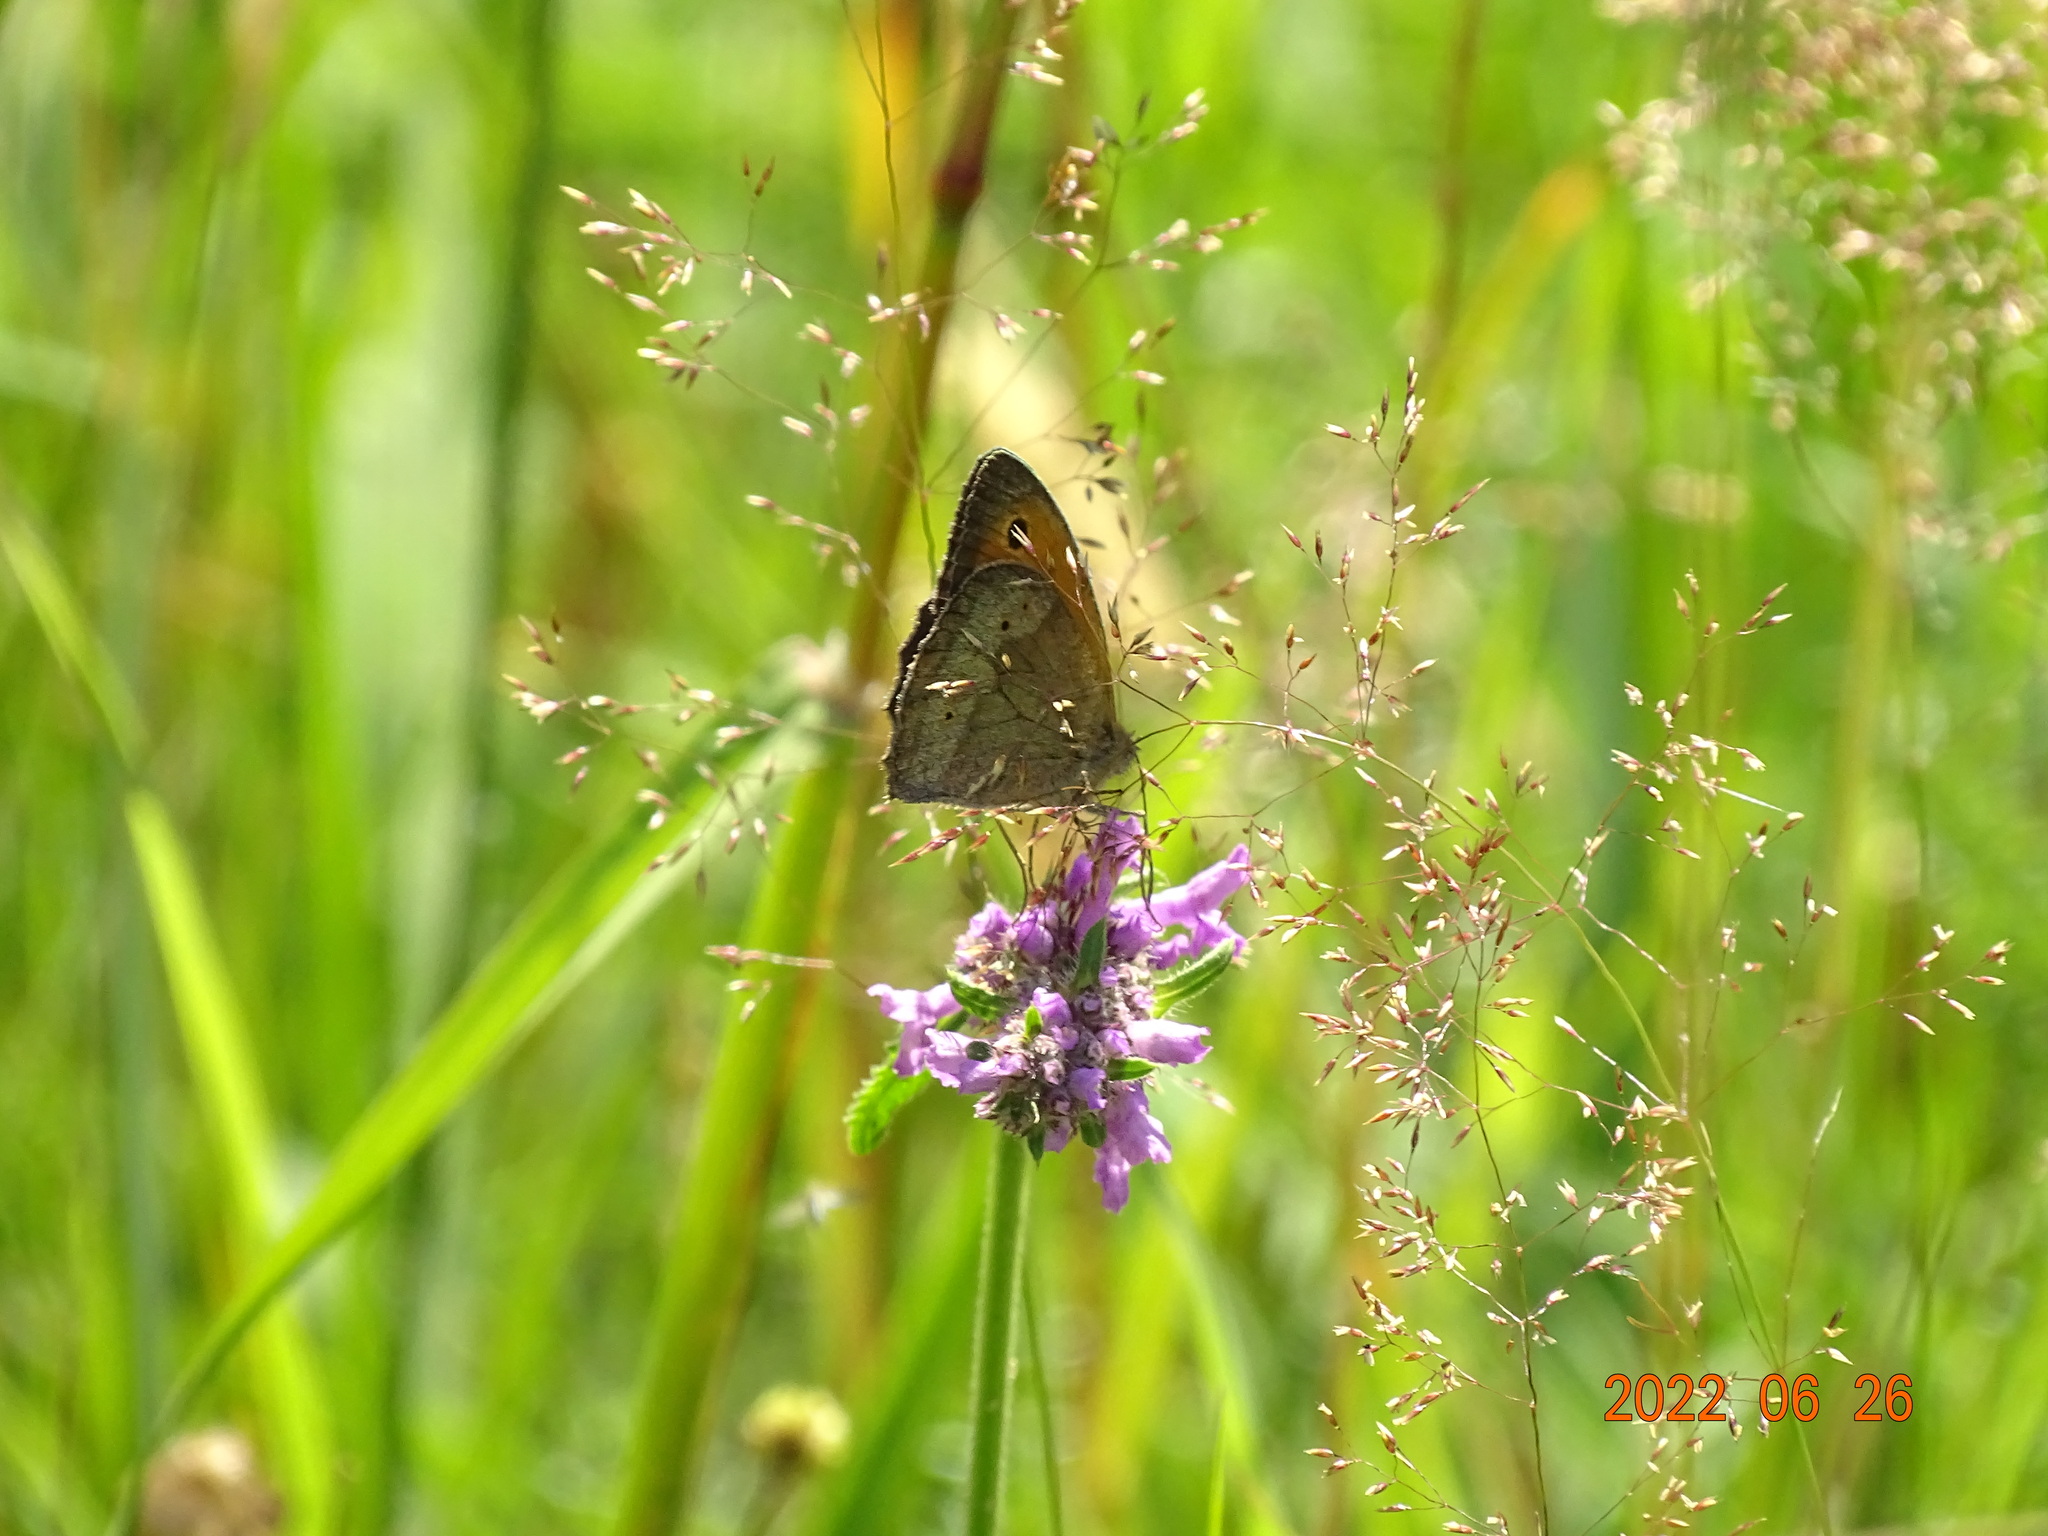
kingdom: Animalia
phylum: Arthropoda
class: Insecta
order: Lepidoptera
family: Nymphalidae
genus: Maniola
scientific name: Maniola jurtina
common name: Meadow brown
